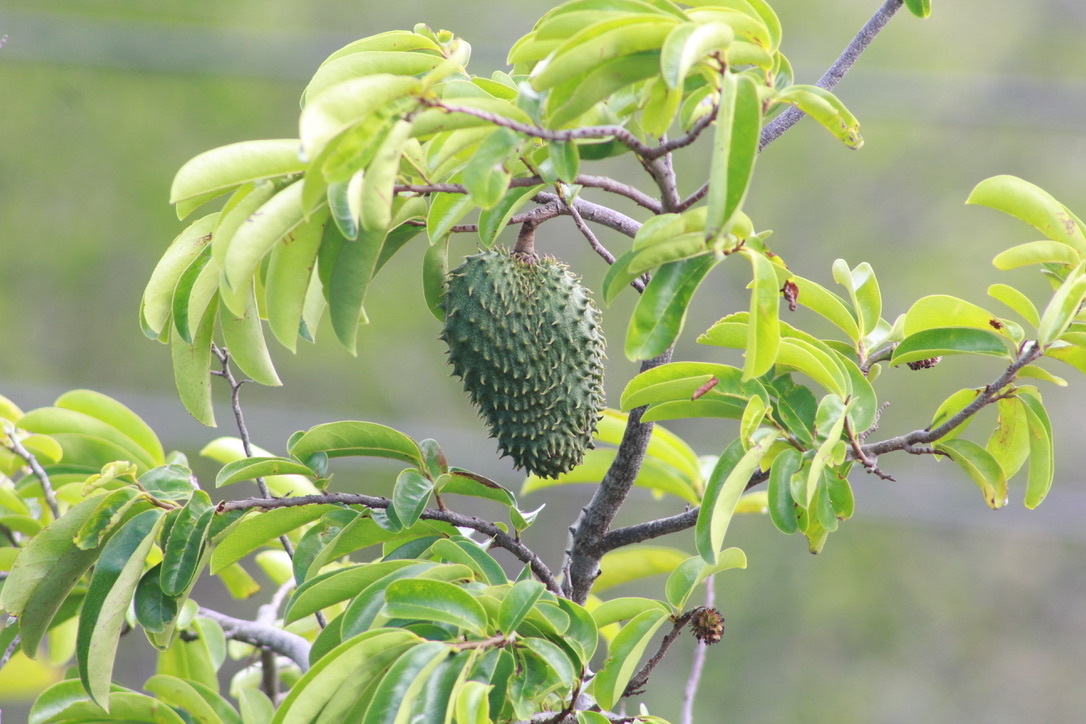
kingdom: Plantae
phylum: Tracheophyta
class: Magnoliopsida
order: Magnoliales
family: Annonaceae
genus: Annona
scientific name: Annona muricata
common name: Soursop
